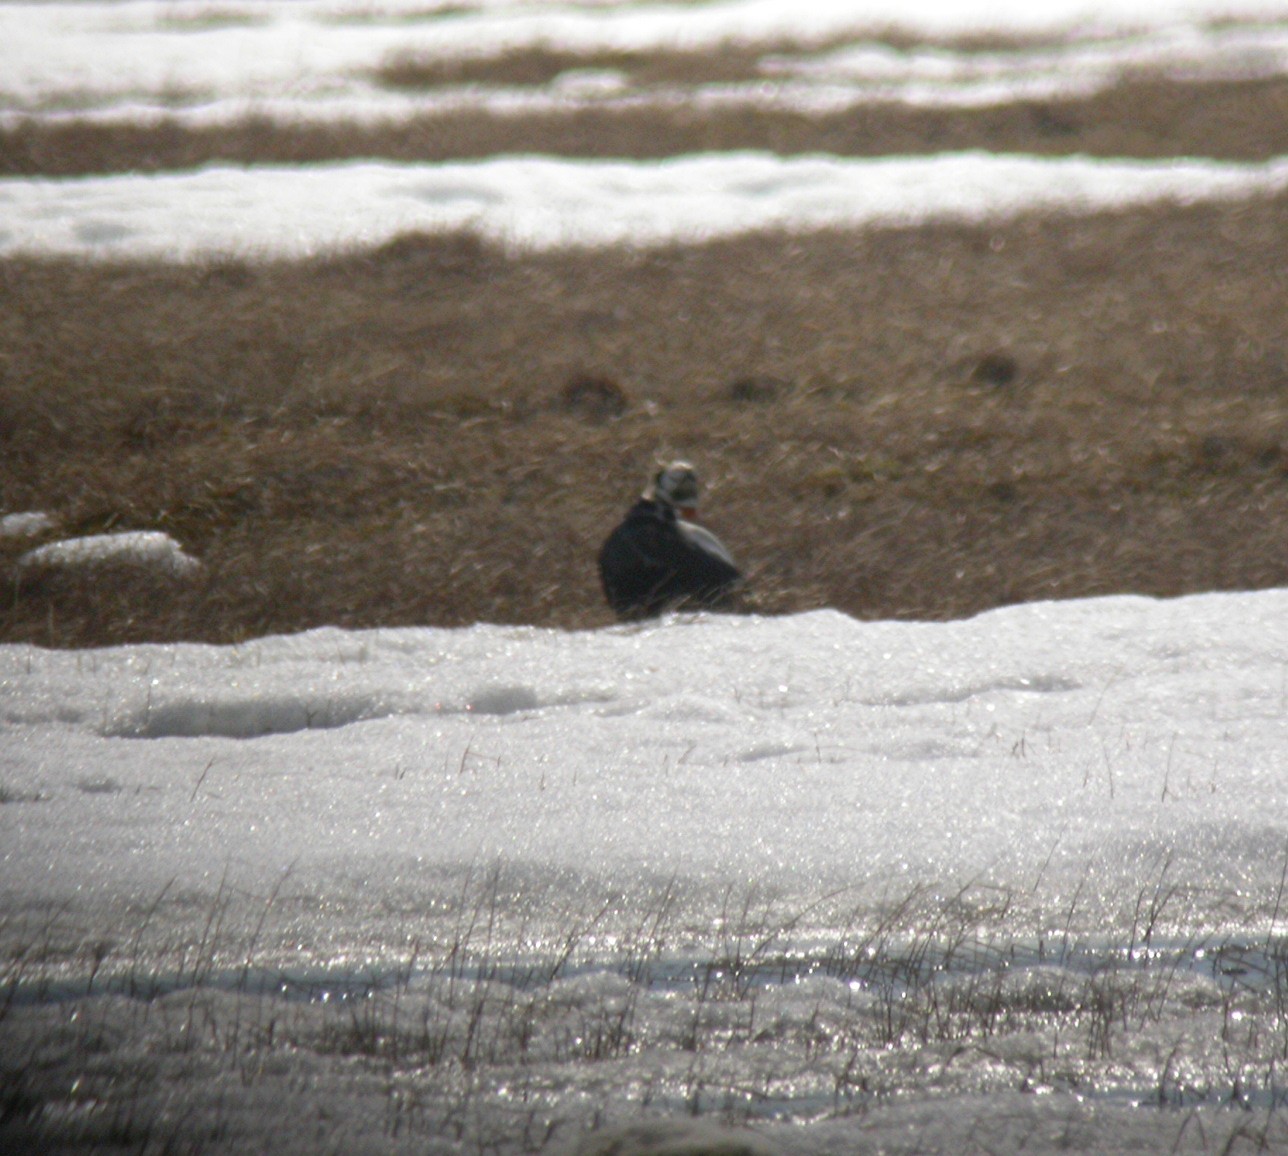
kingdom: Animalia
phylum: Chordata
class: Aves
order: Anseriformes
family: Anatidae
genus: Somateria
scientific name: Somateria fischeri
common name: Spectacled eider
